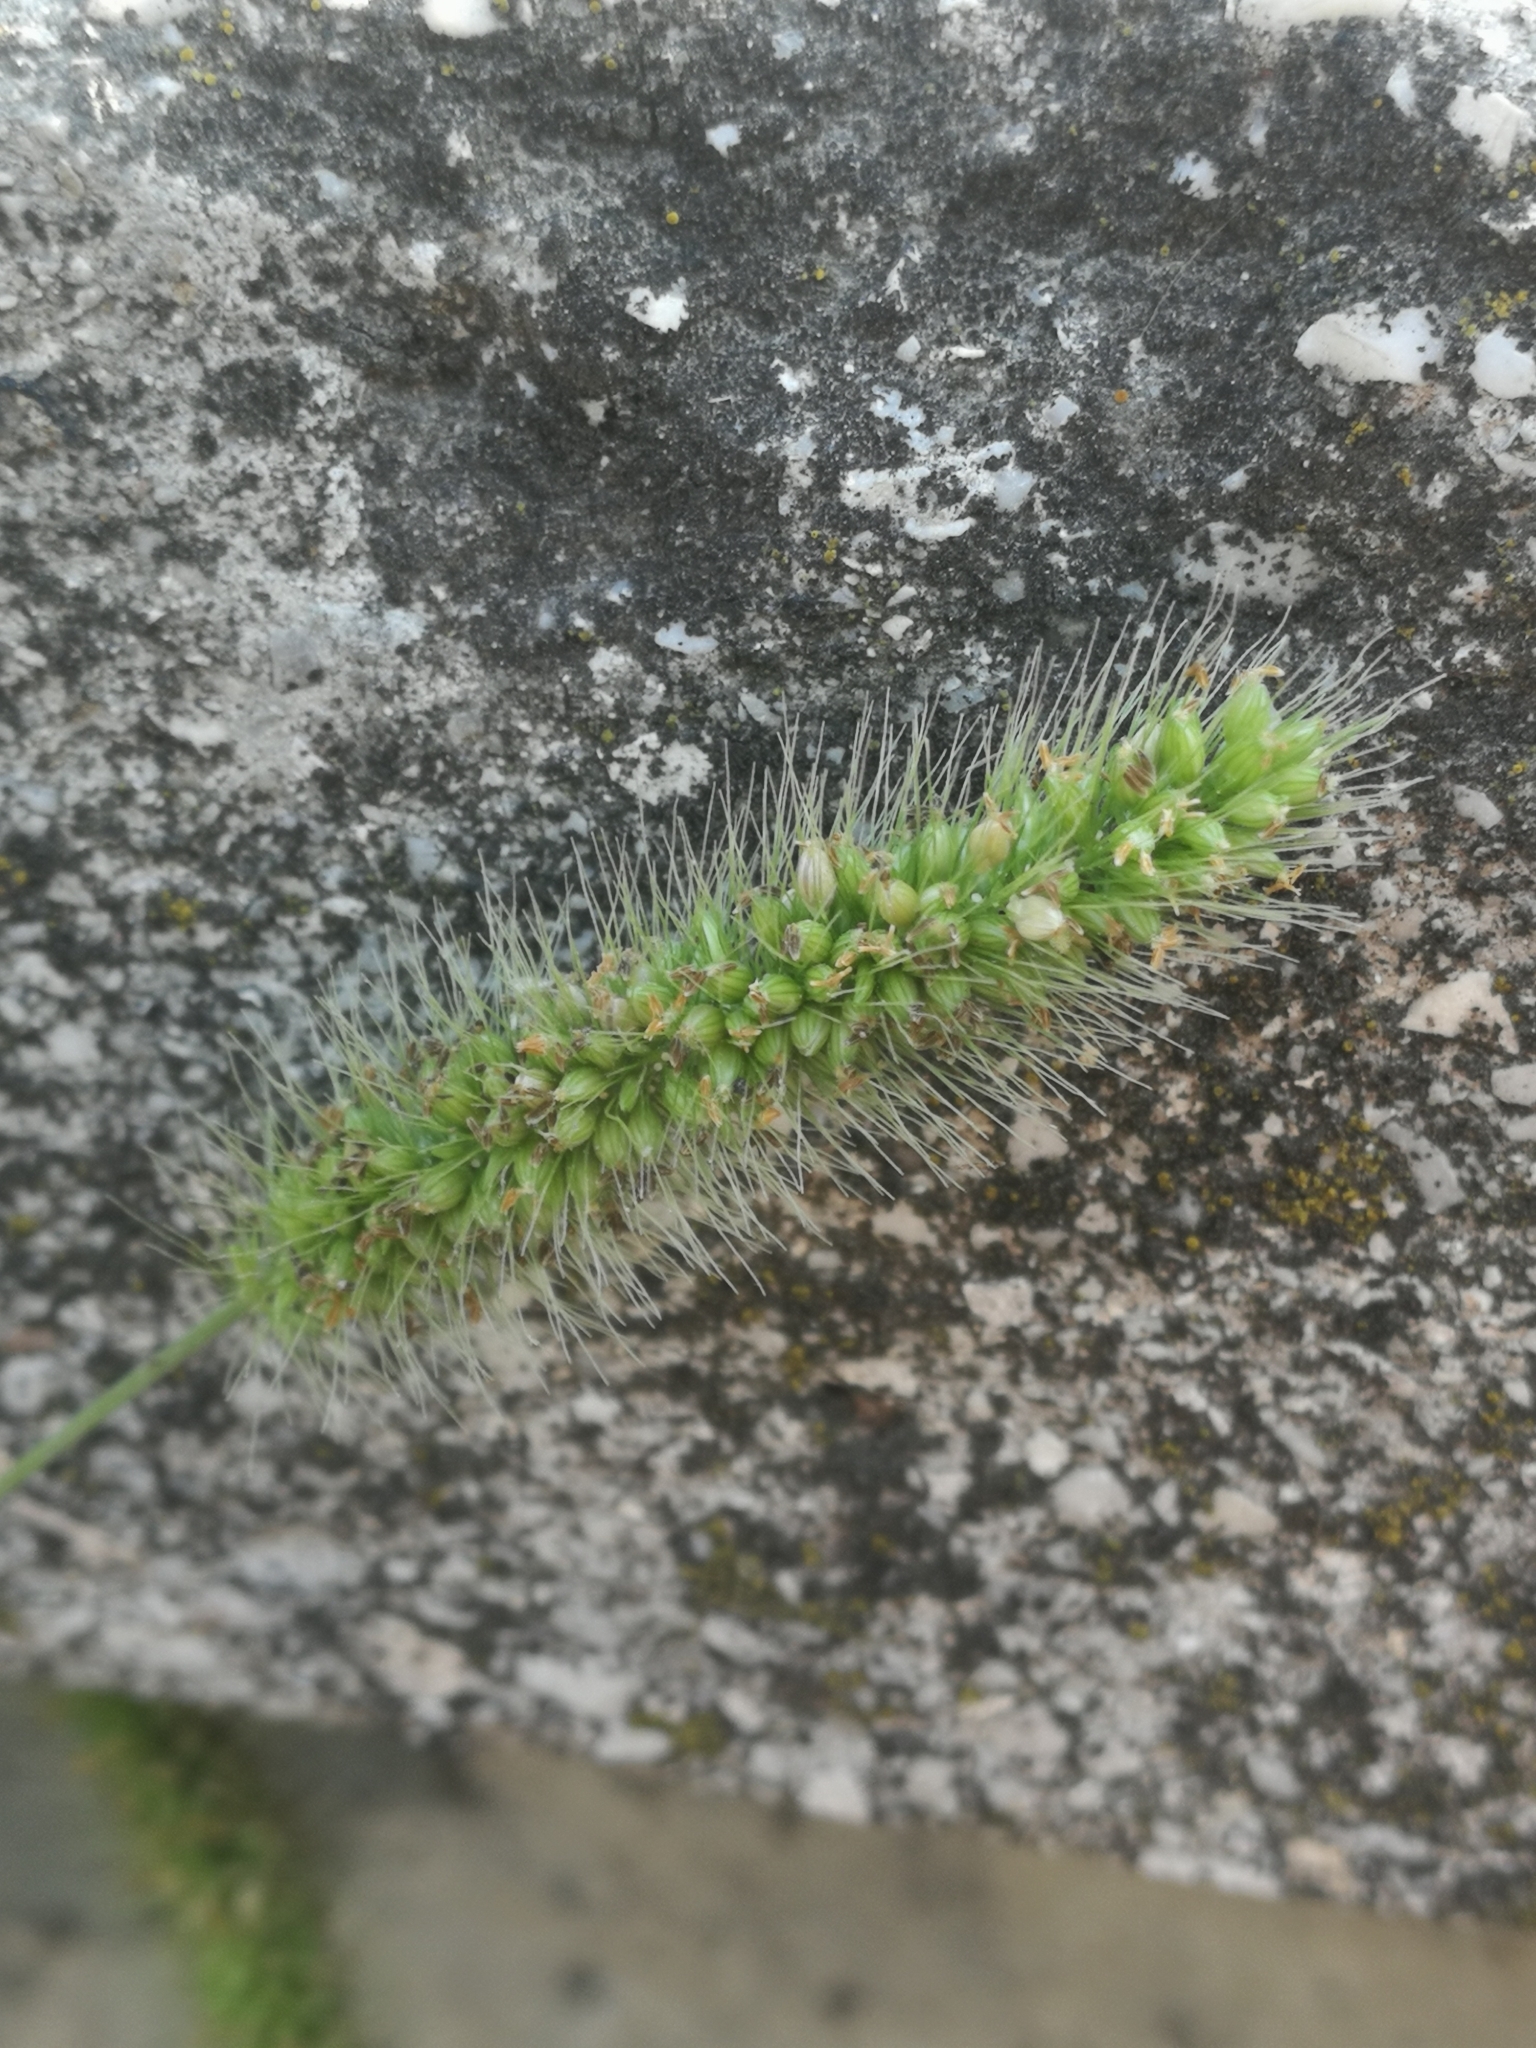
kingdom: Plantae
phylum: Tracheophyta
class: Liliopsida
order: Poales
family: Poaceae
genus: Setaria
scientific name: Setaria viridis
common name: Green bristlegrass
